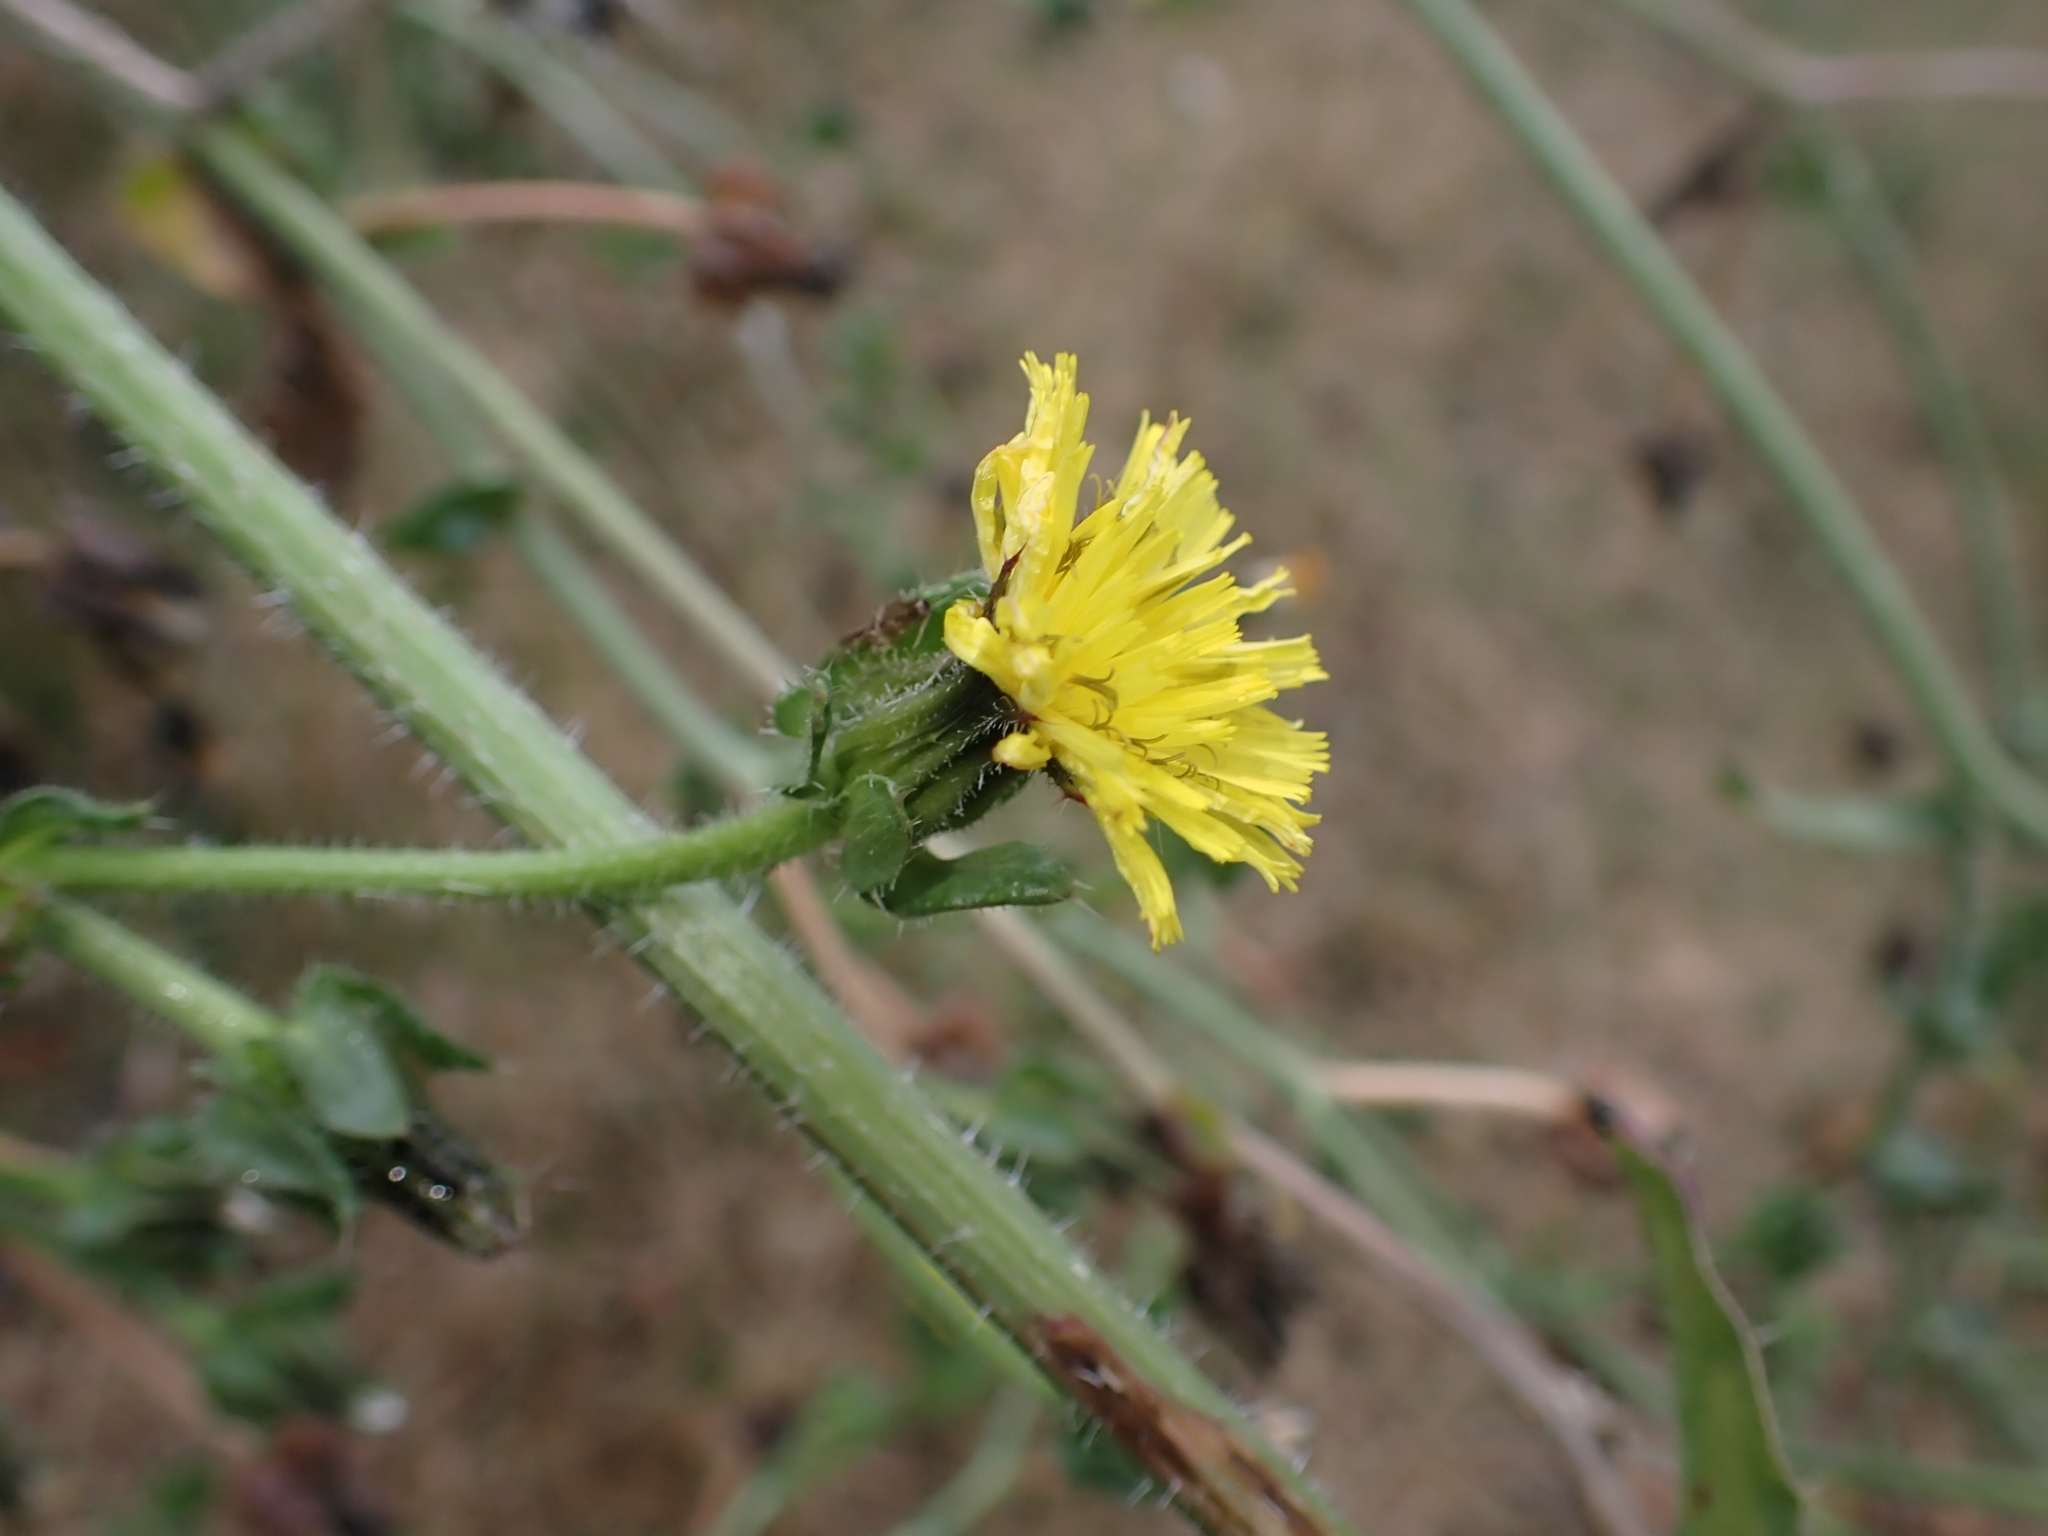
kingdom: Plantae
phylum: Tracheophyta
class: Magnoliopsida
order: Asterales
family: Asteraceae
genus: Helminthotheca
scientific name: Helminthotheca echioides
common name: Ox-tongue
